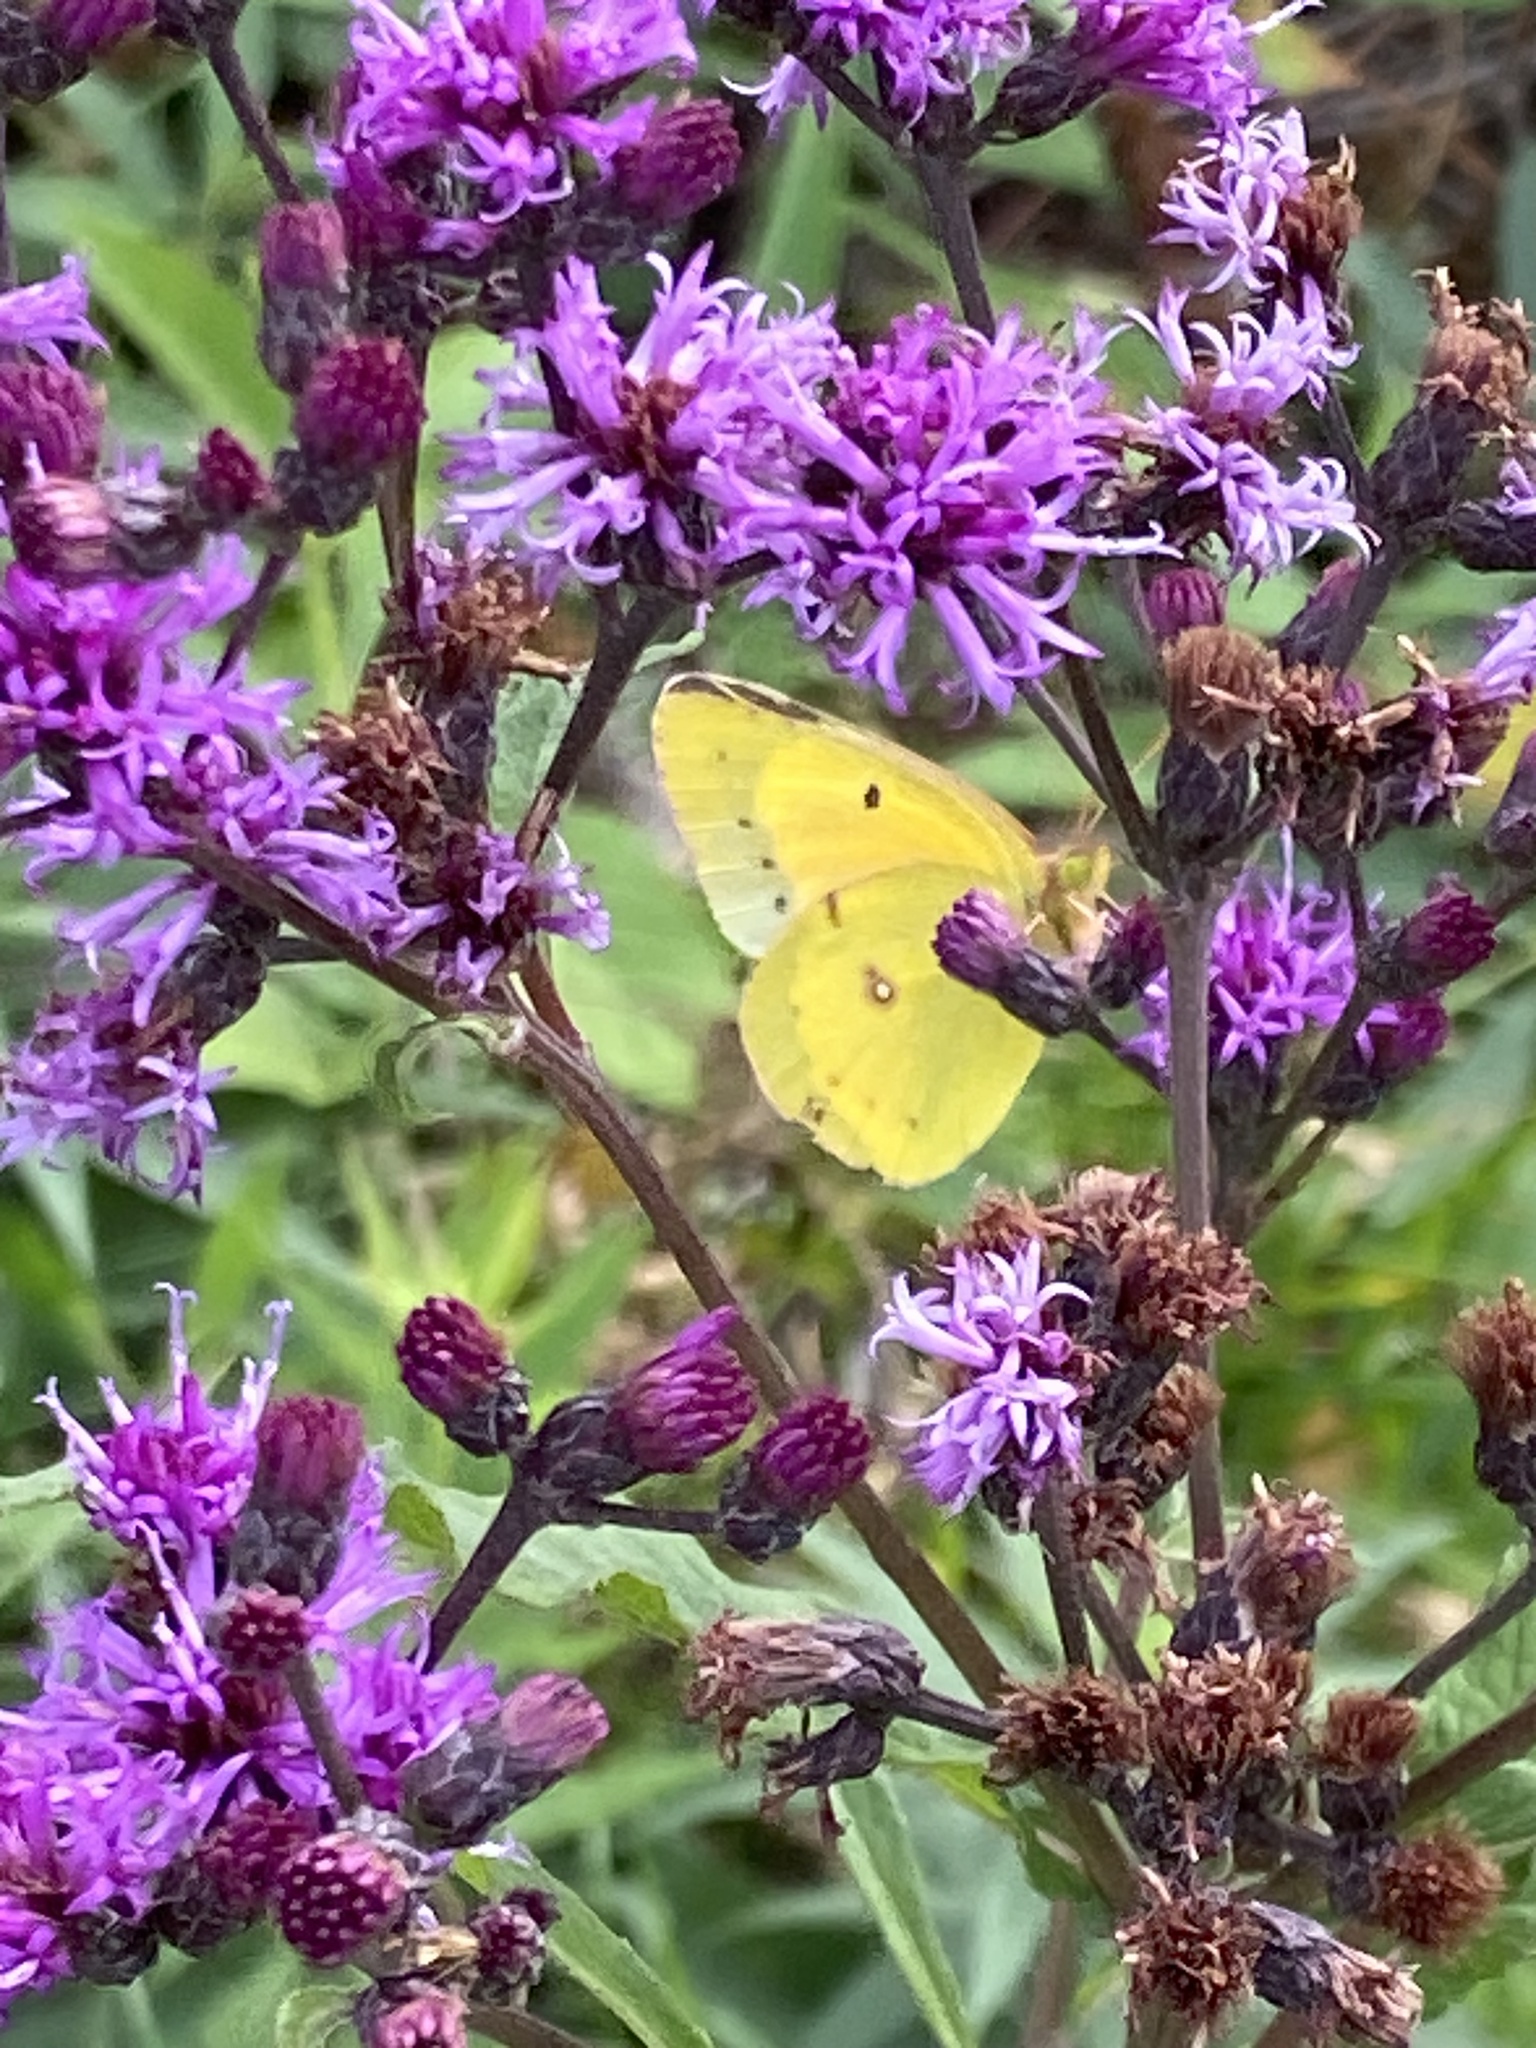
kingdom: Animalia
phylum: Arthropoda
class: Insecta
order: Lepidoptera
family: Pieridae
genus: Colias
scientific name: Colias eurytheme
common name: Alfalfa butterfly
